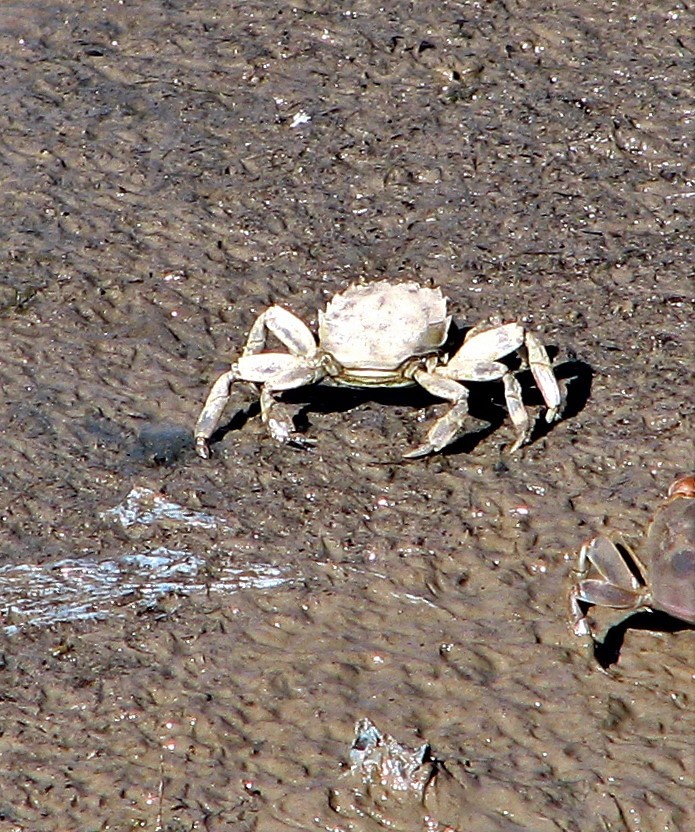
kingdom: Animalia
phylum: Arthropoda
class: Malacostraca
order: Decapoda
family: Varunidae
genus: Cyrtograpsus
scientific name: Cyrtograpsus angulatus
